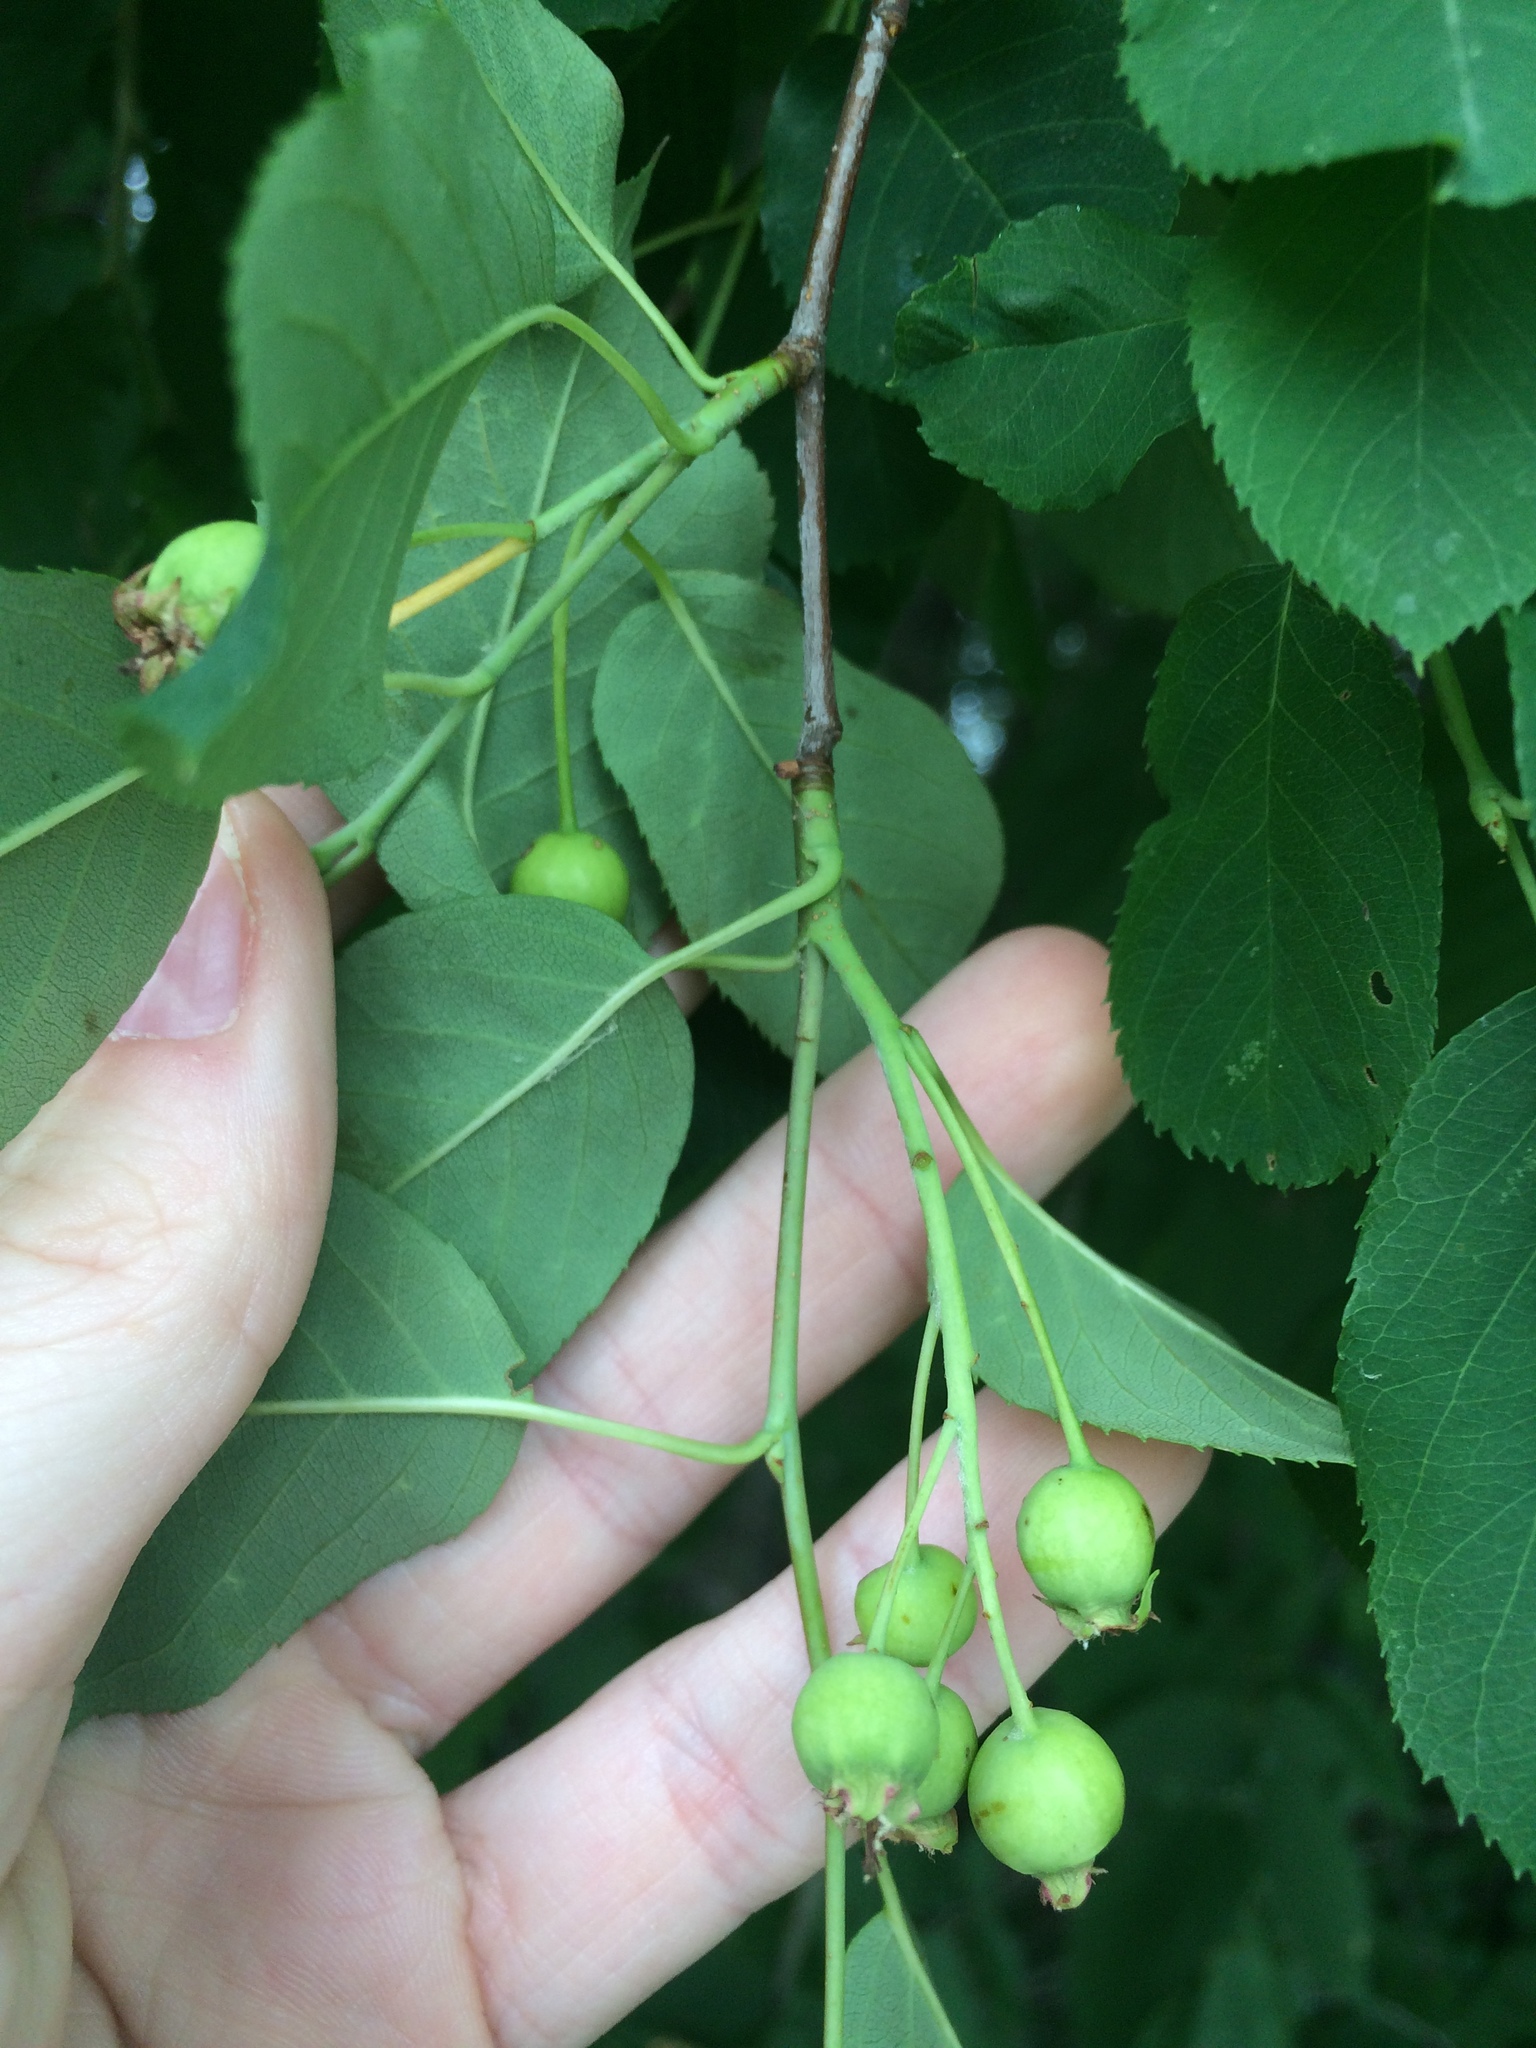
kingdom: Plantae
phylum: Tracheophyta
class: Magnoliopsida
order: Rosales
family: Rosaceae
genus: Amelanchier
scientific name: Amelanchier
